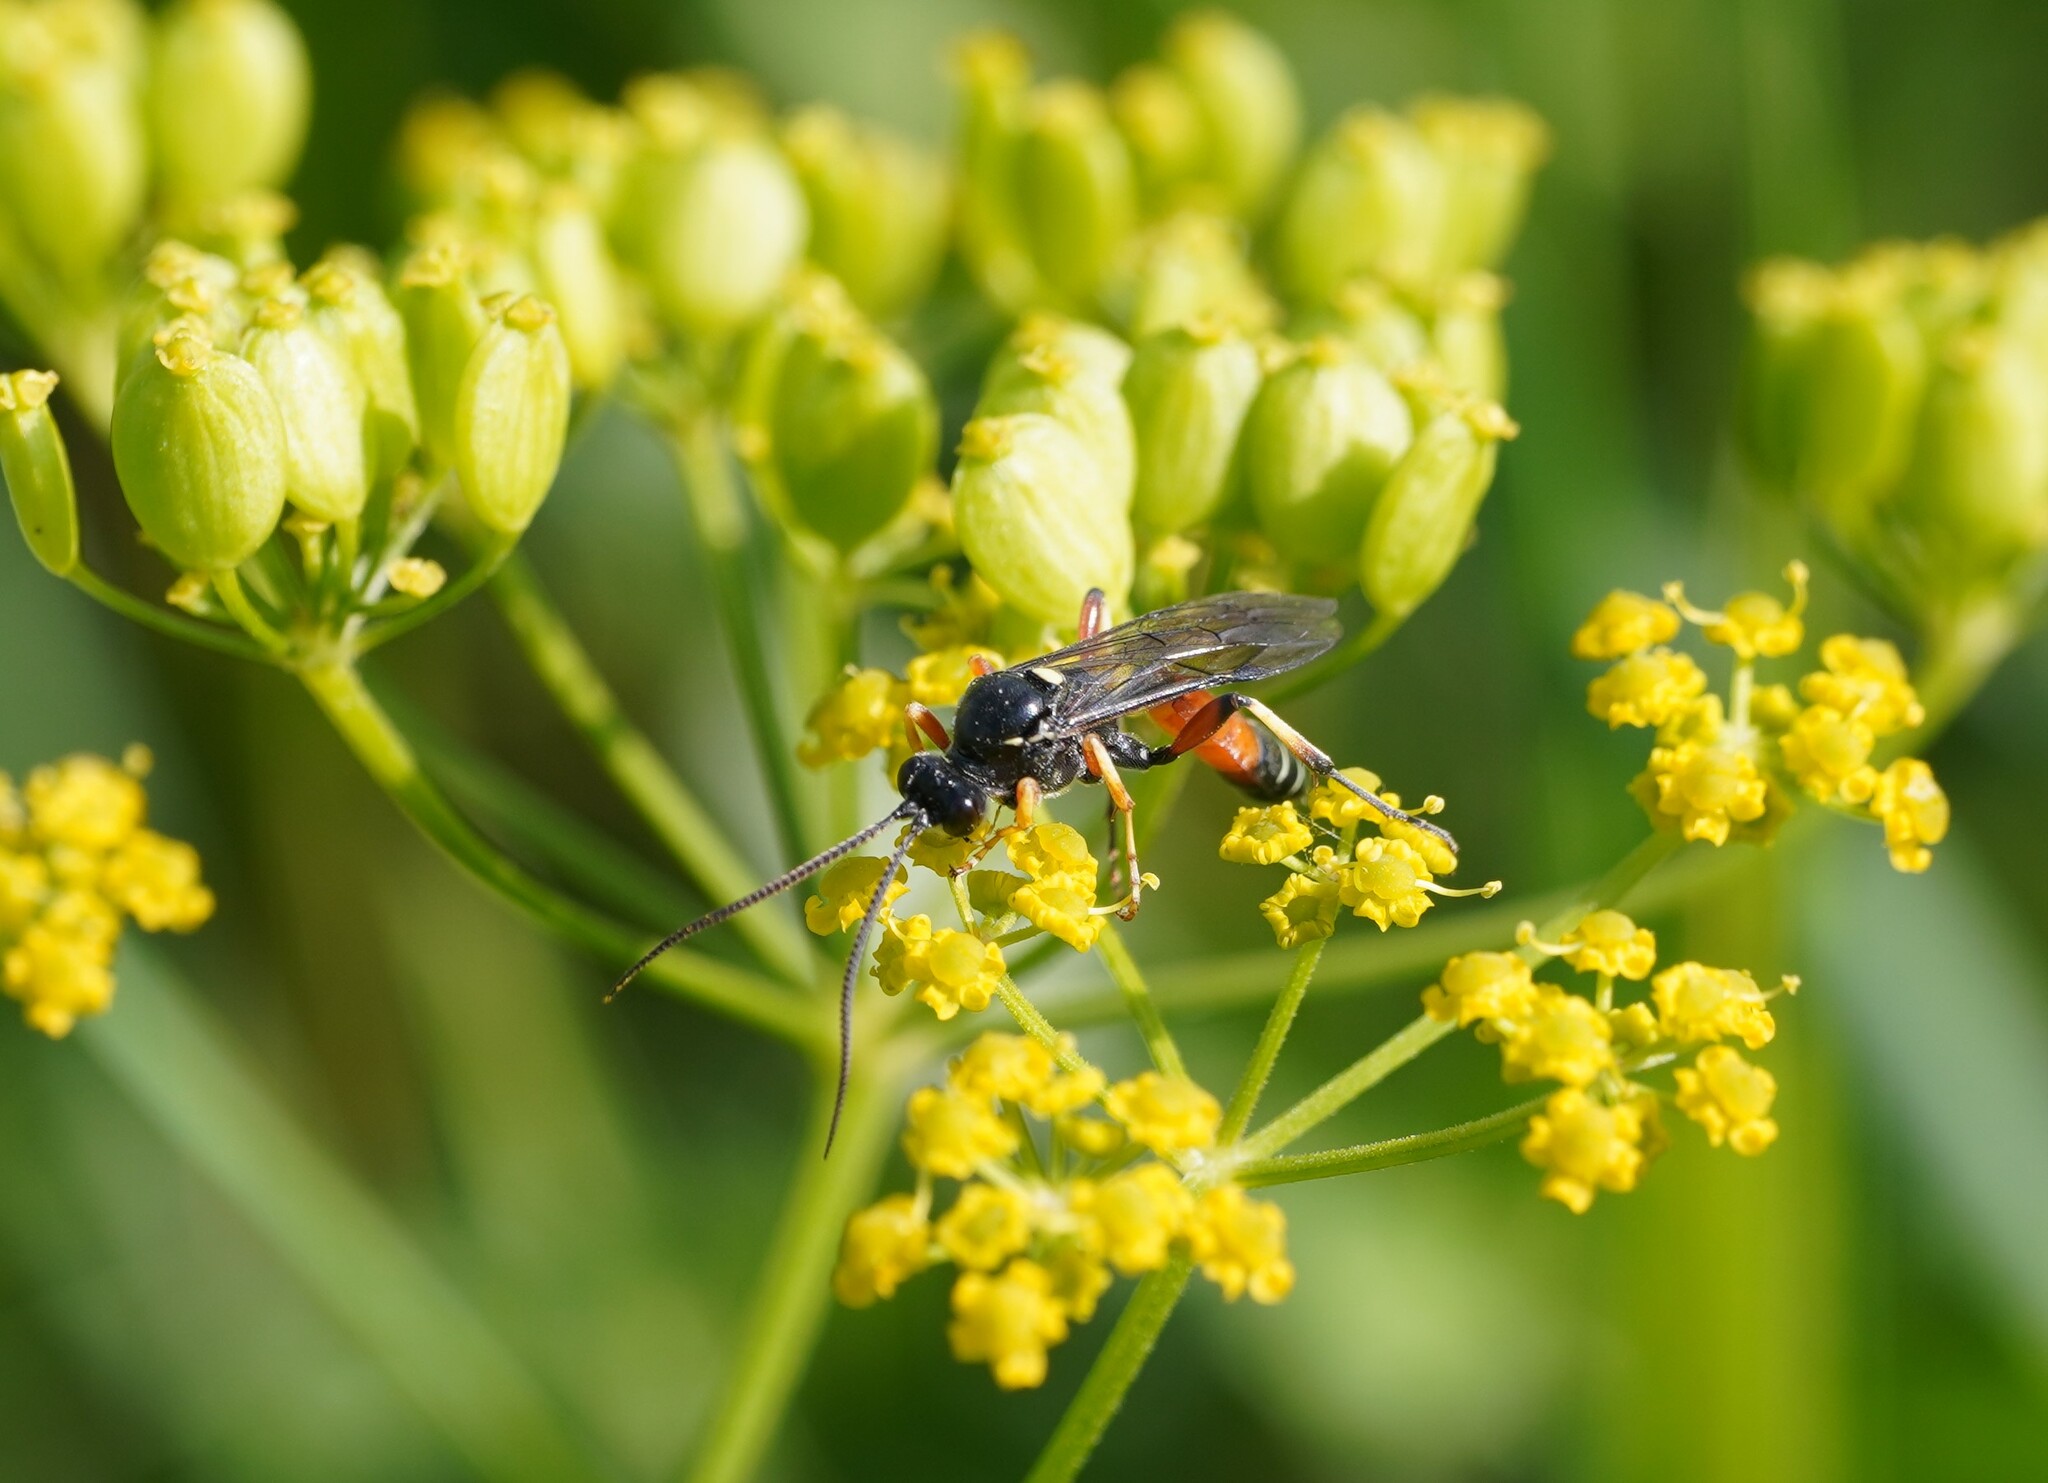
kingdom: Animalia
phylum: Arthropoda
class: Insecta
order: Hymenoptera
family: Ichneumonidae
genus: Ctenichneumon
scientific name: Ctenichneumon panzeri
